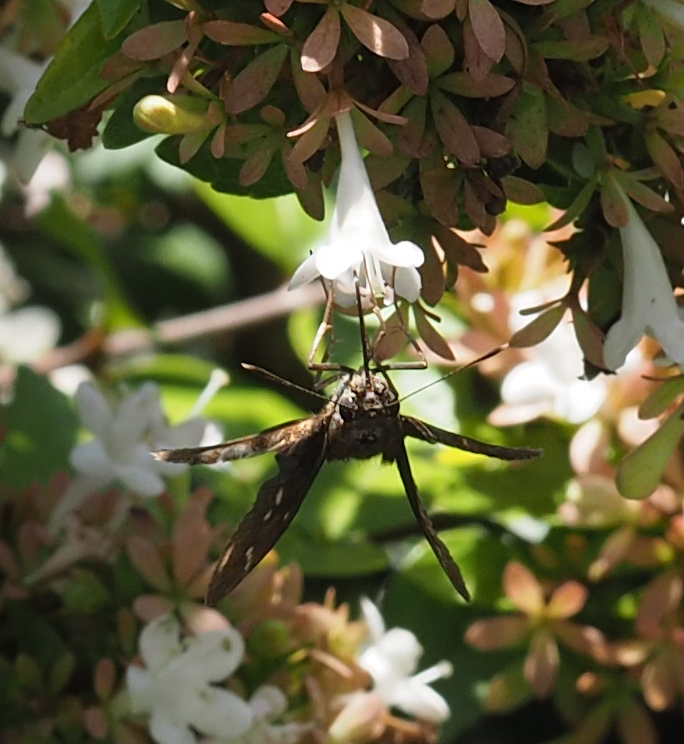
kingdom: Animalia
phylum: Arthropoda
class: Insecta
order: Lepidoptera
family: Hesperiidae
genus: Lerema
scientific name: Lerema accius
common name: Clouded skipper
